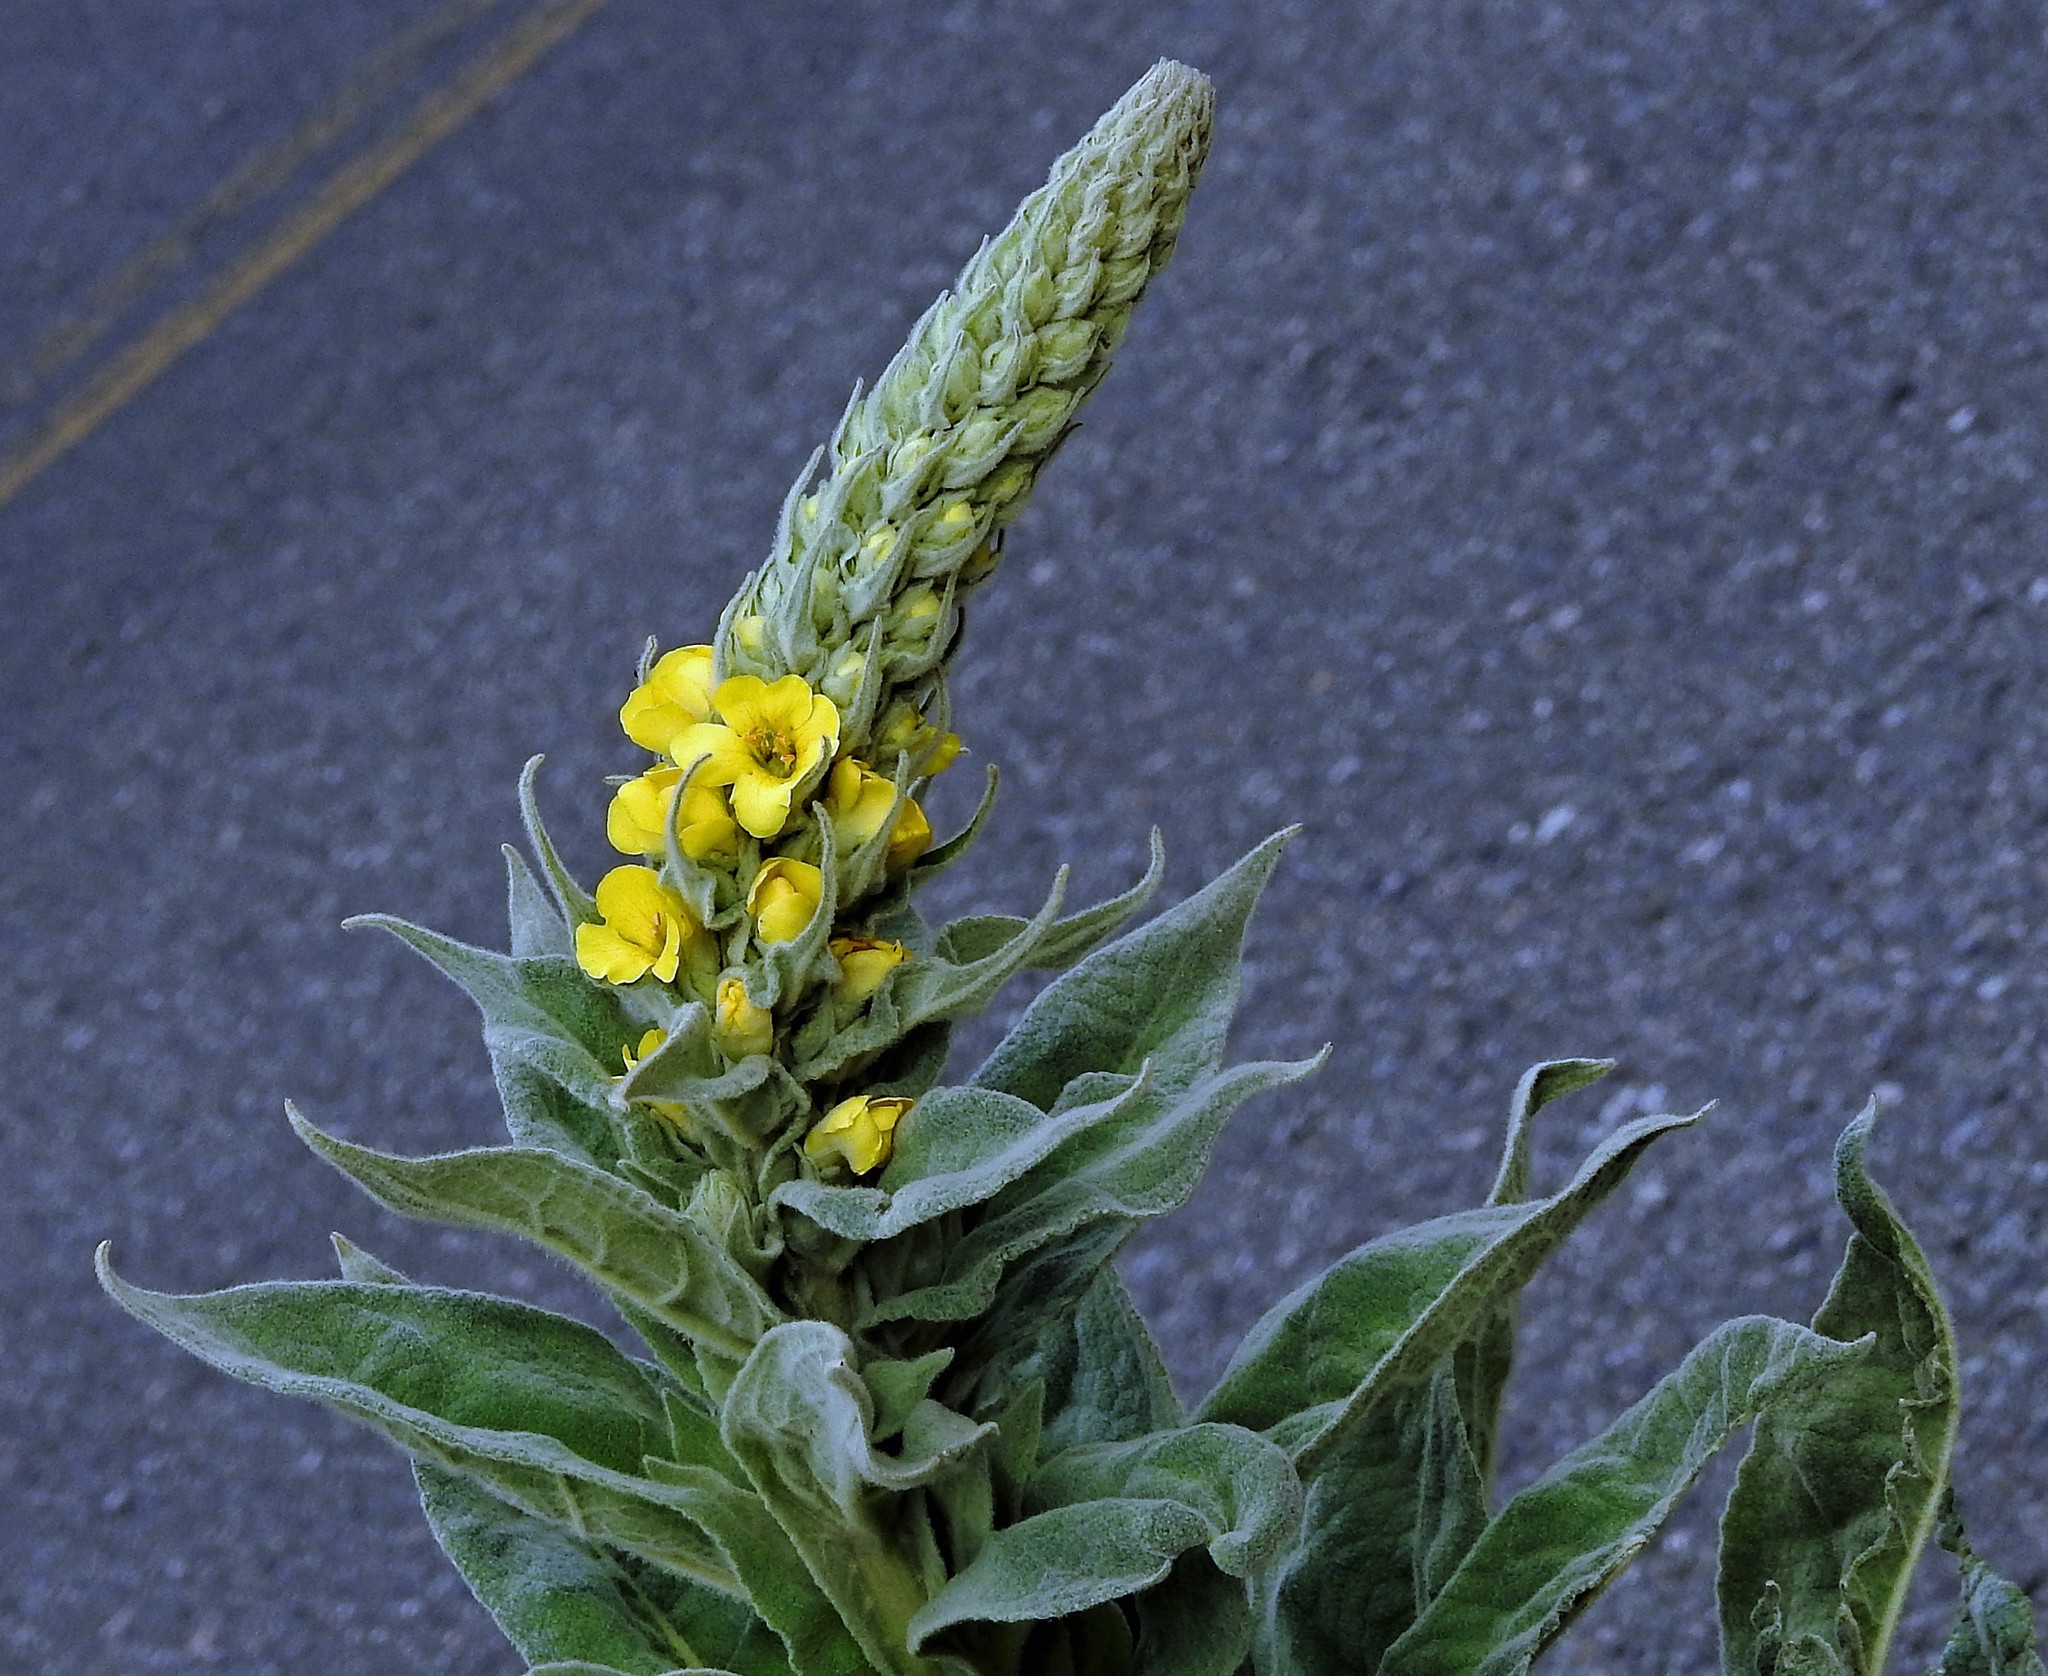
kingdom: Plantae
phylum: Tracheophyta
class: Magnoliopsida
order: Lamiales
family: Scrophulariaceae
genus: Verbascum
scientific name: Verbascum thapsus
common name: Common mullein
